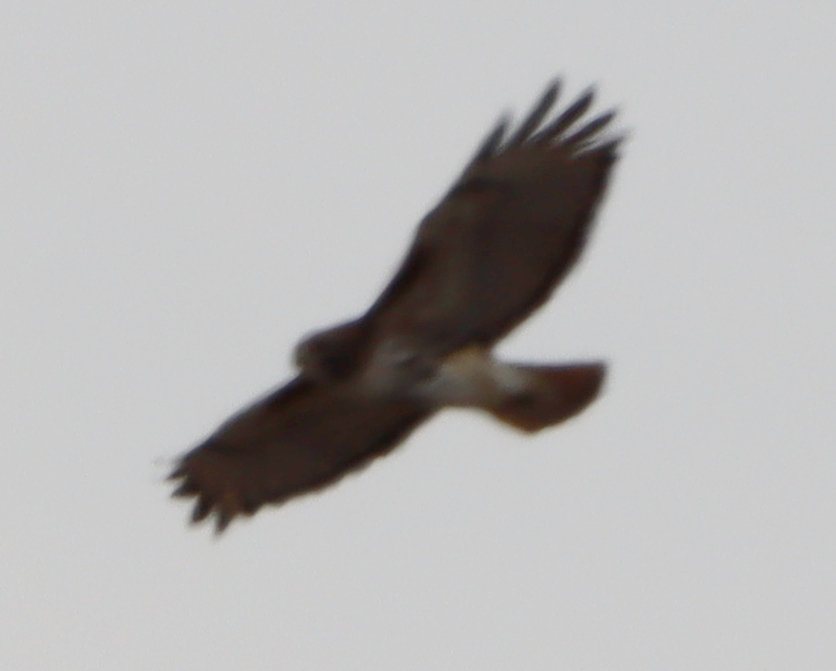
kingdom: Animalia
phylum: Chordata
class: Aves
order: Accipitriformes
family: Accipitridae
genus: Buteo
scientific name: Buteo jamaicensis
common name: Red-tailed hawk
